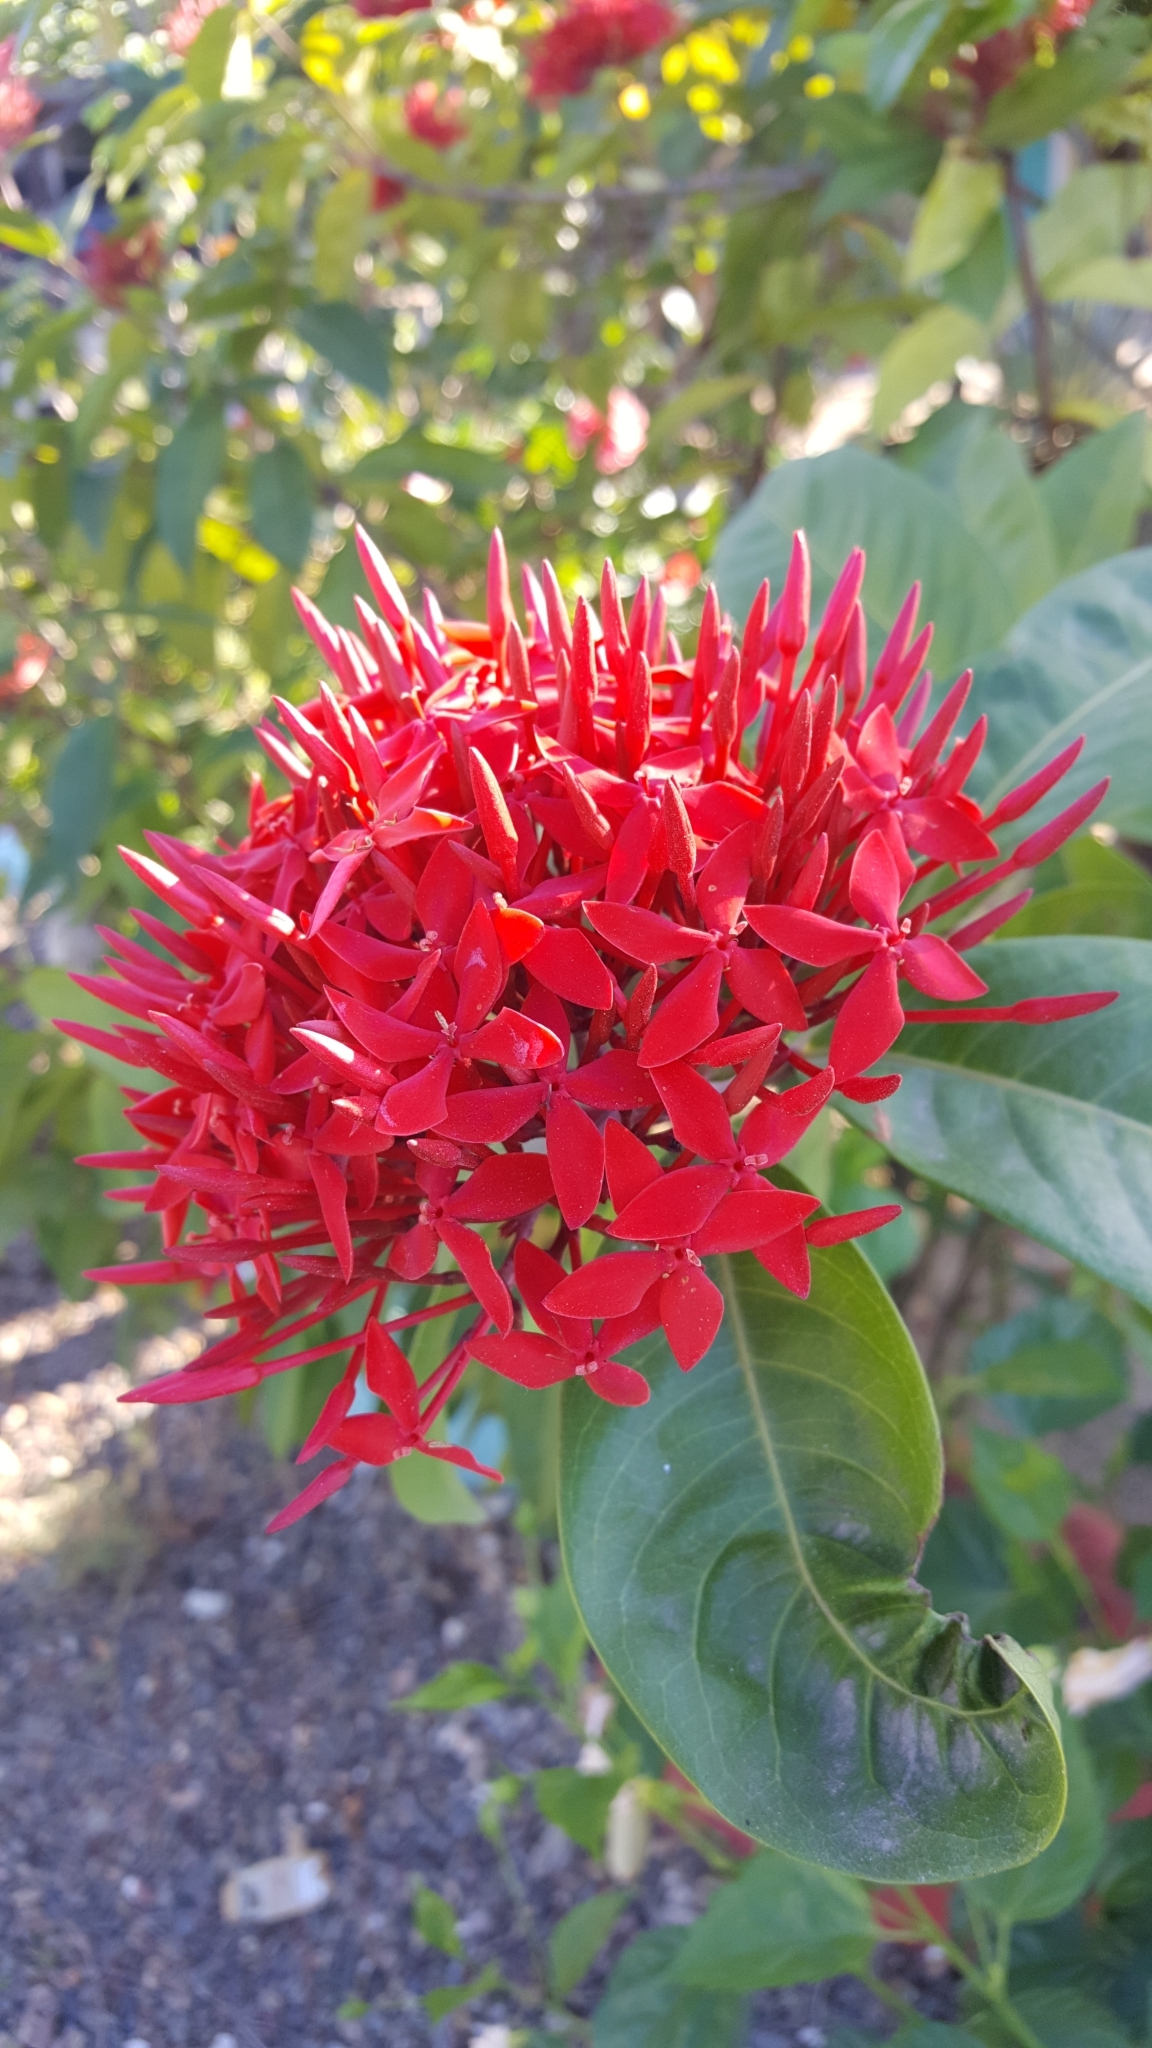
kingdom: Plantae
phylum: Tracheophyta
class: Magnoliopsida
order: Gentianales
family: Rubiaceae
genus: Ixora
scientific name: Ixora coccinea
